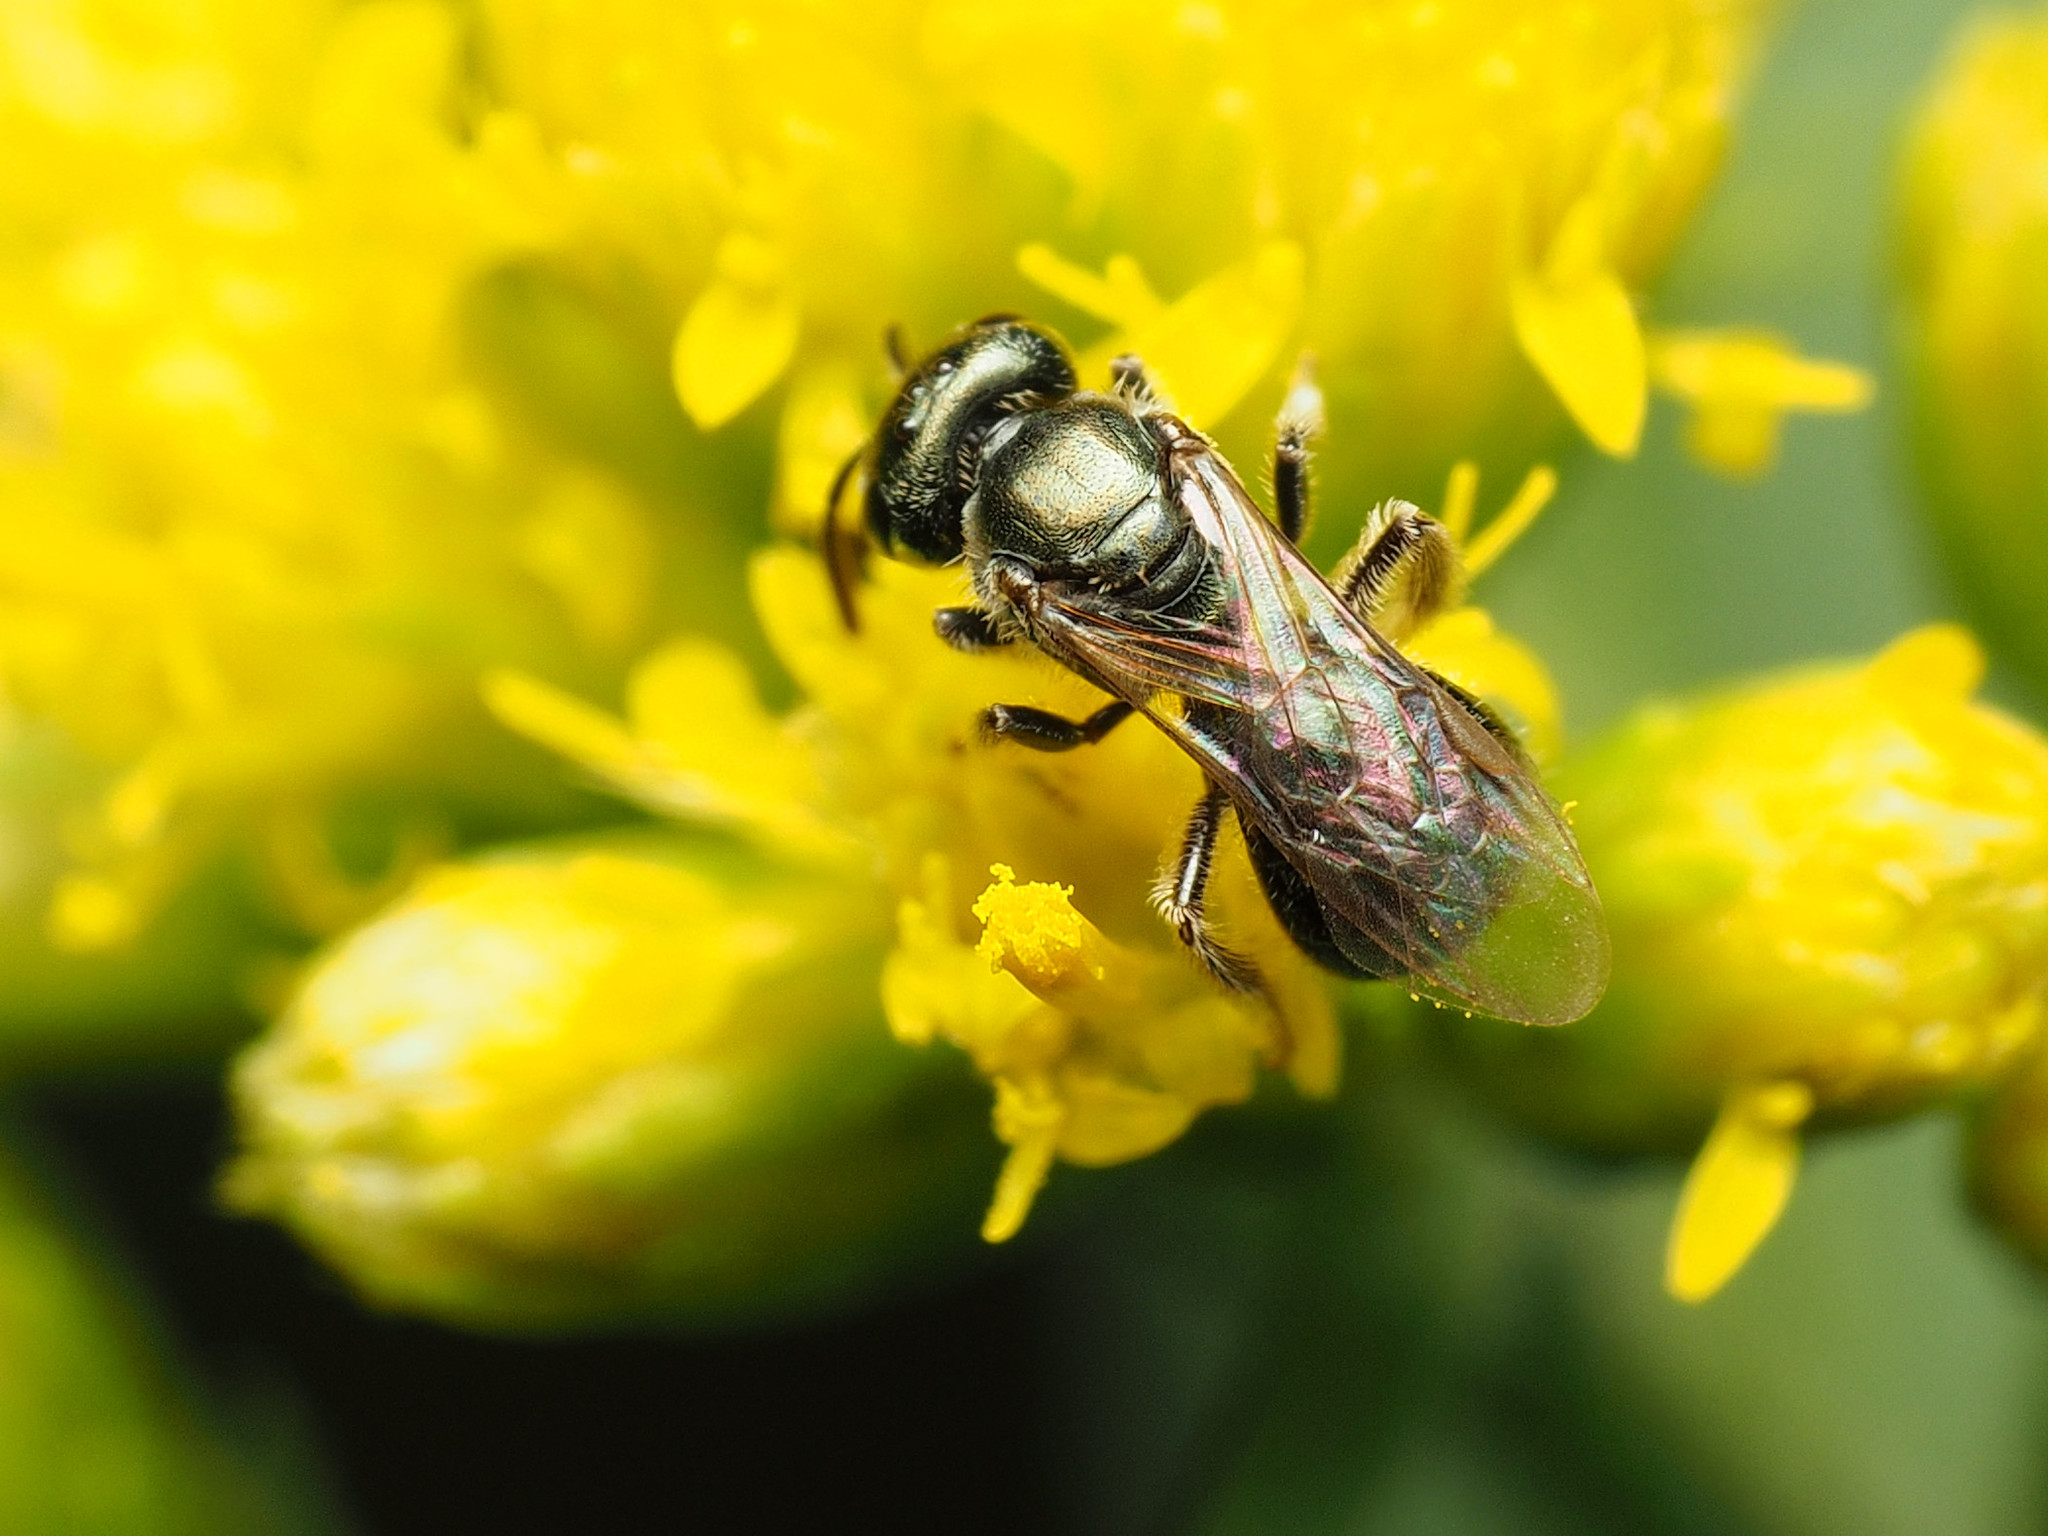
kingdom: Animalia
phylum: Arthropoda
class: Insecta
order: Hymenoptera
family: Halictidae
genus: Lasioglossum
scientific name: Lasioglossum imitatum
